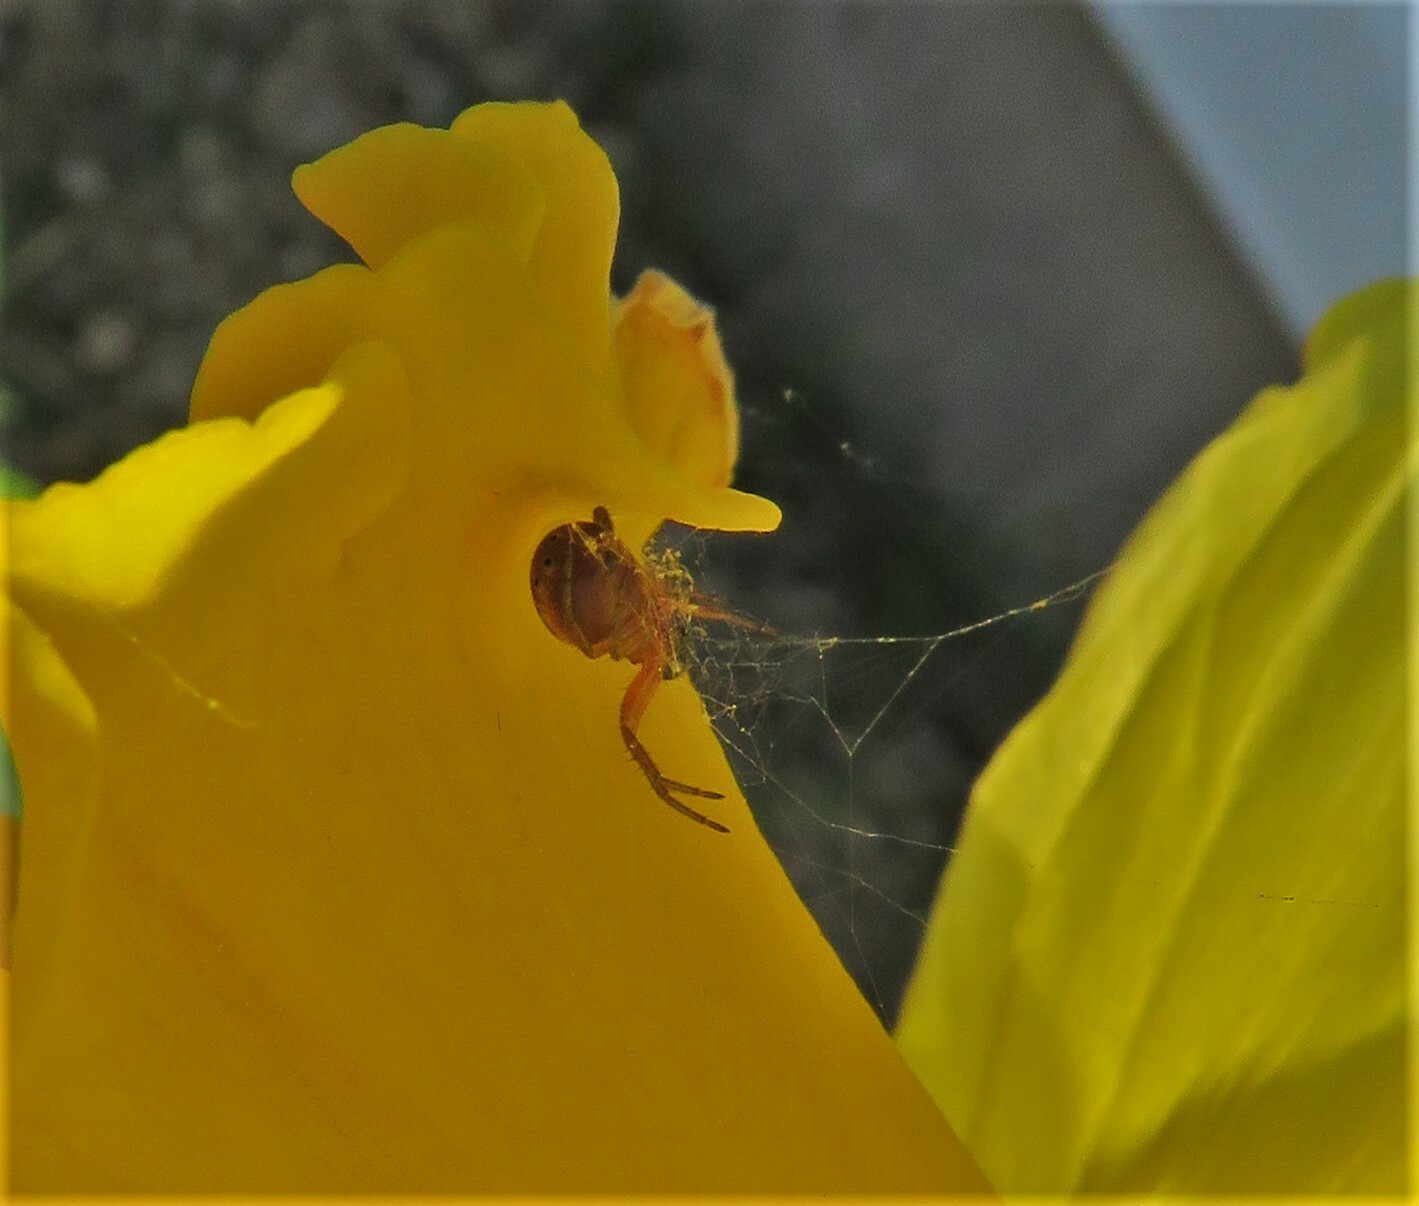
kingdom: Animalia
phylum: Arthropoda
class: Arachnida
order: Araneae
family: Araneidae
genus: Araniella
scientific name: Araniella displicata
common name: Sixspotted orb weaver
